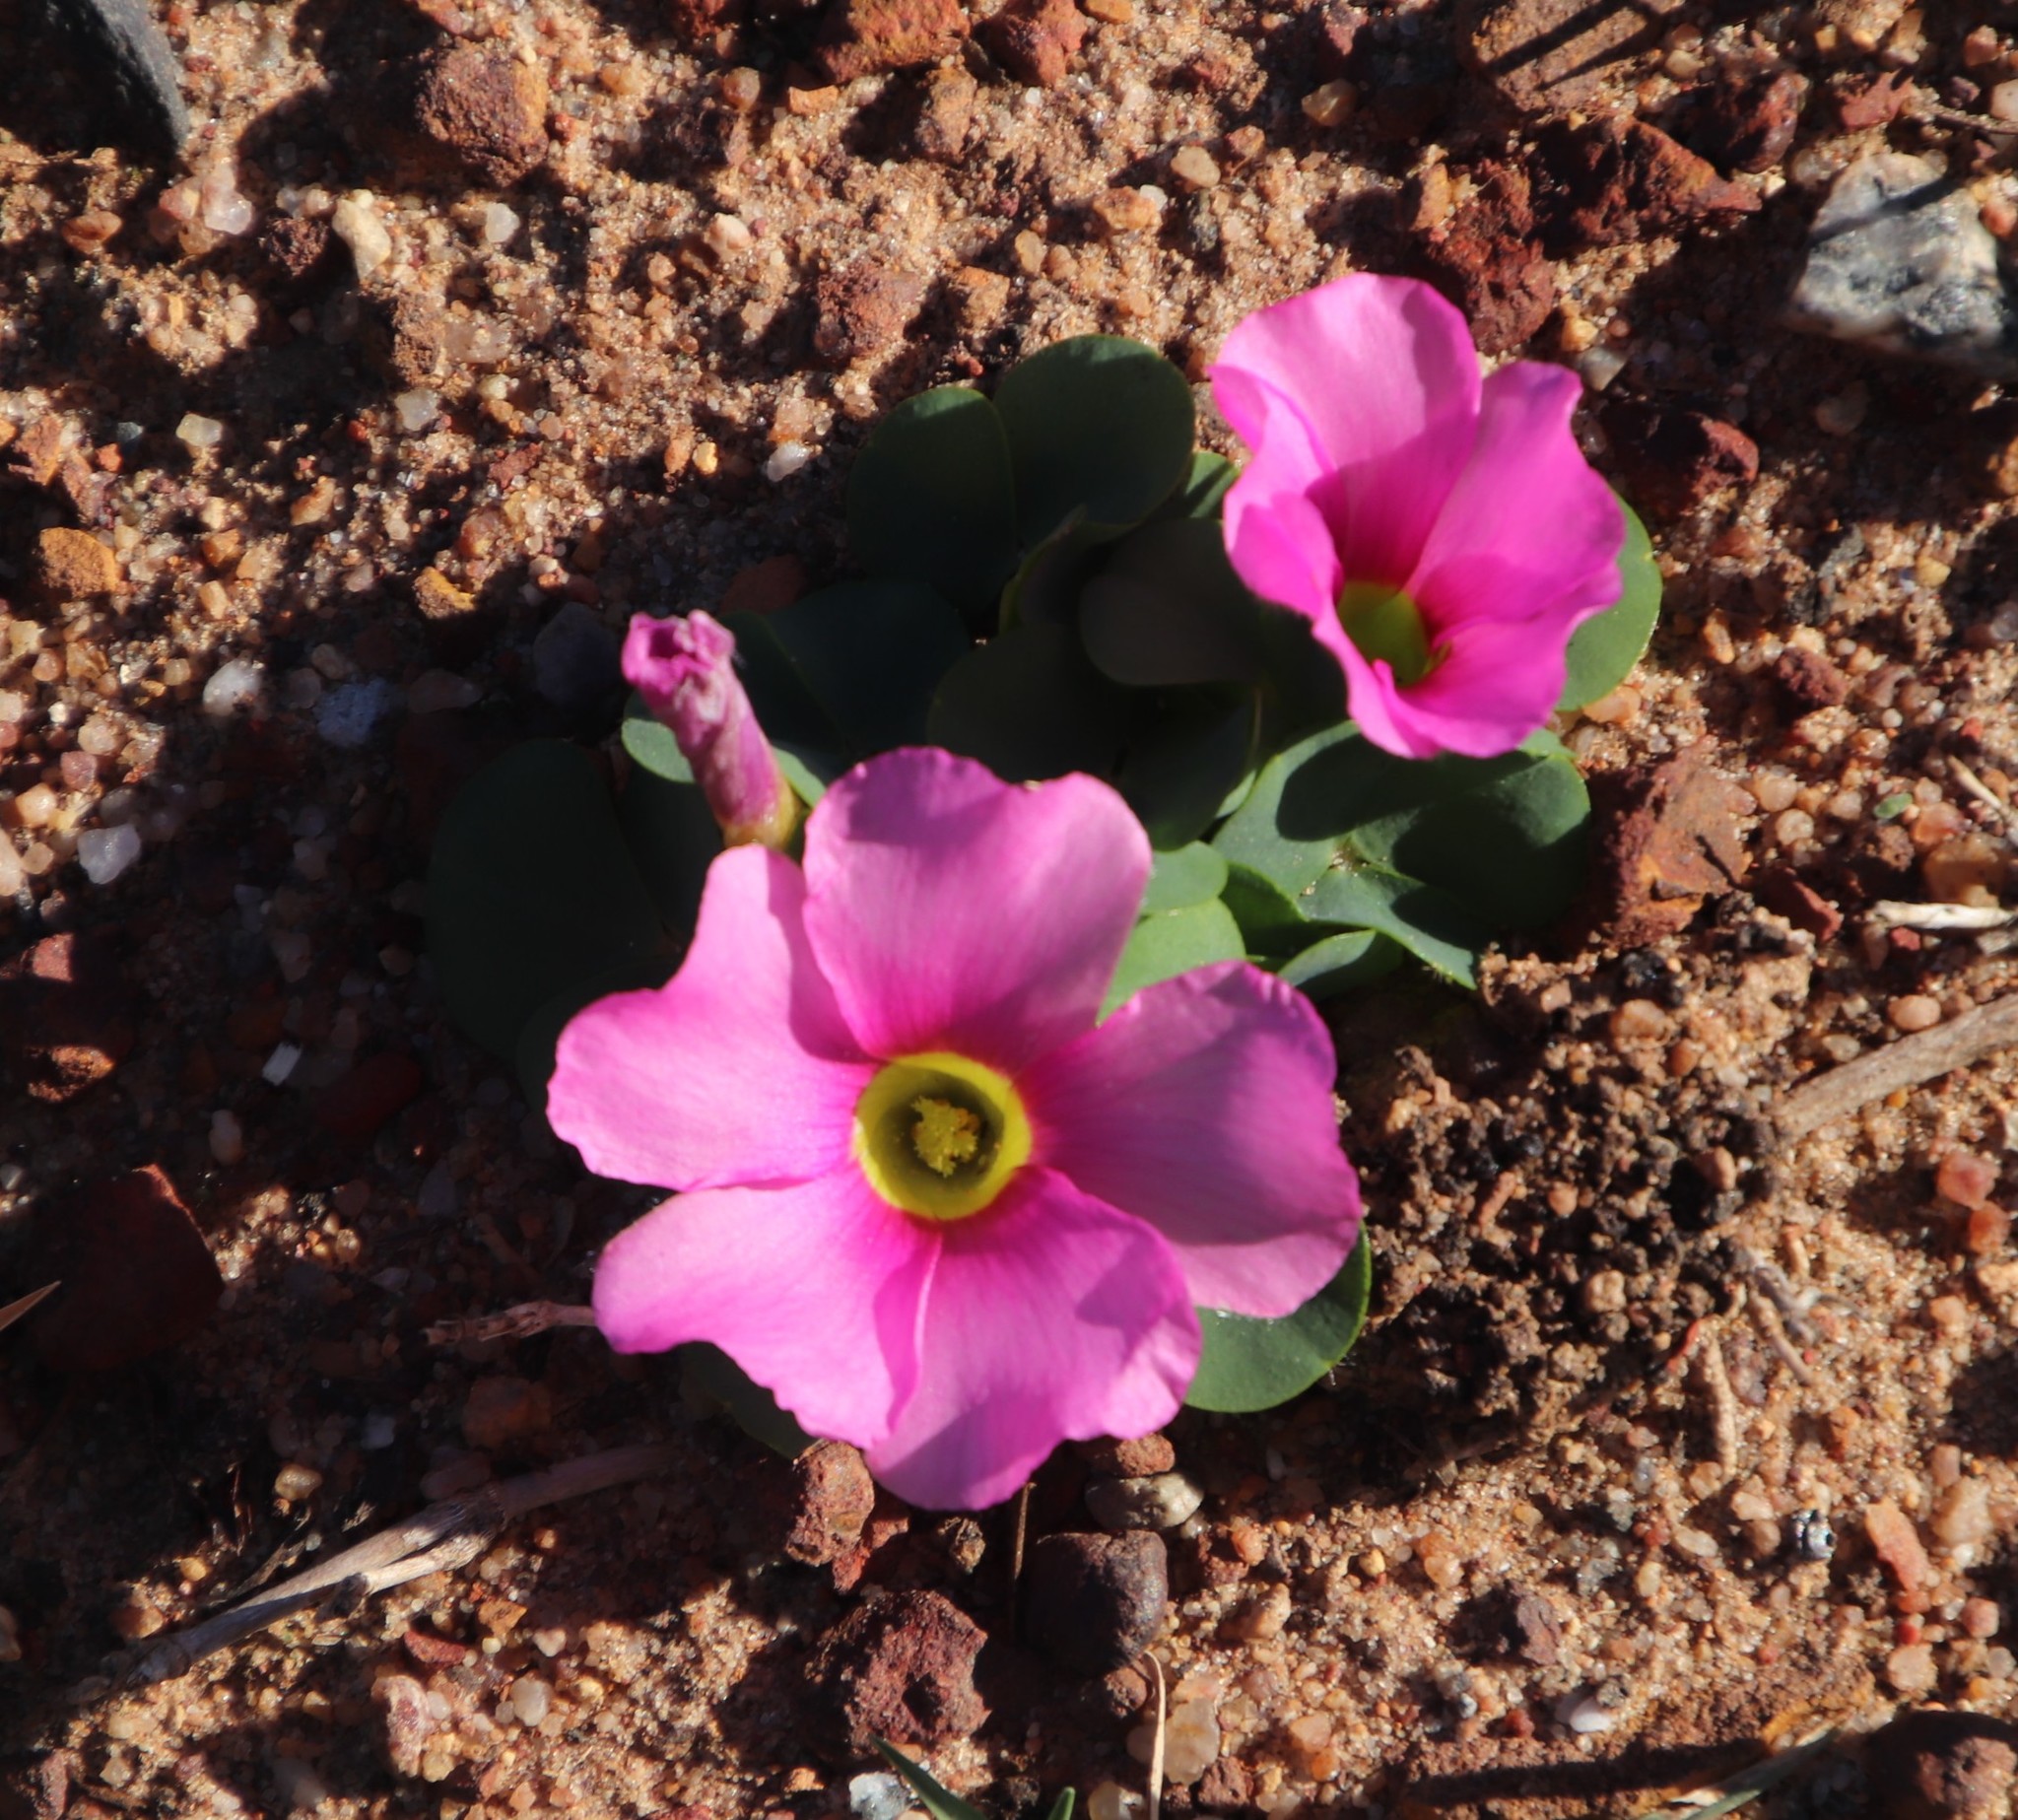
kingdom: Plantae
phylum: Tracheophyta
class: Magnoliopsida
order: Oxalidales
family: Oxalidaceae
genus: Oxalis
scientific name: Oxalis purpurea
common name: Purple woodsorrel
